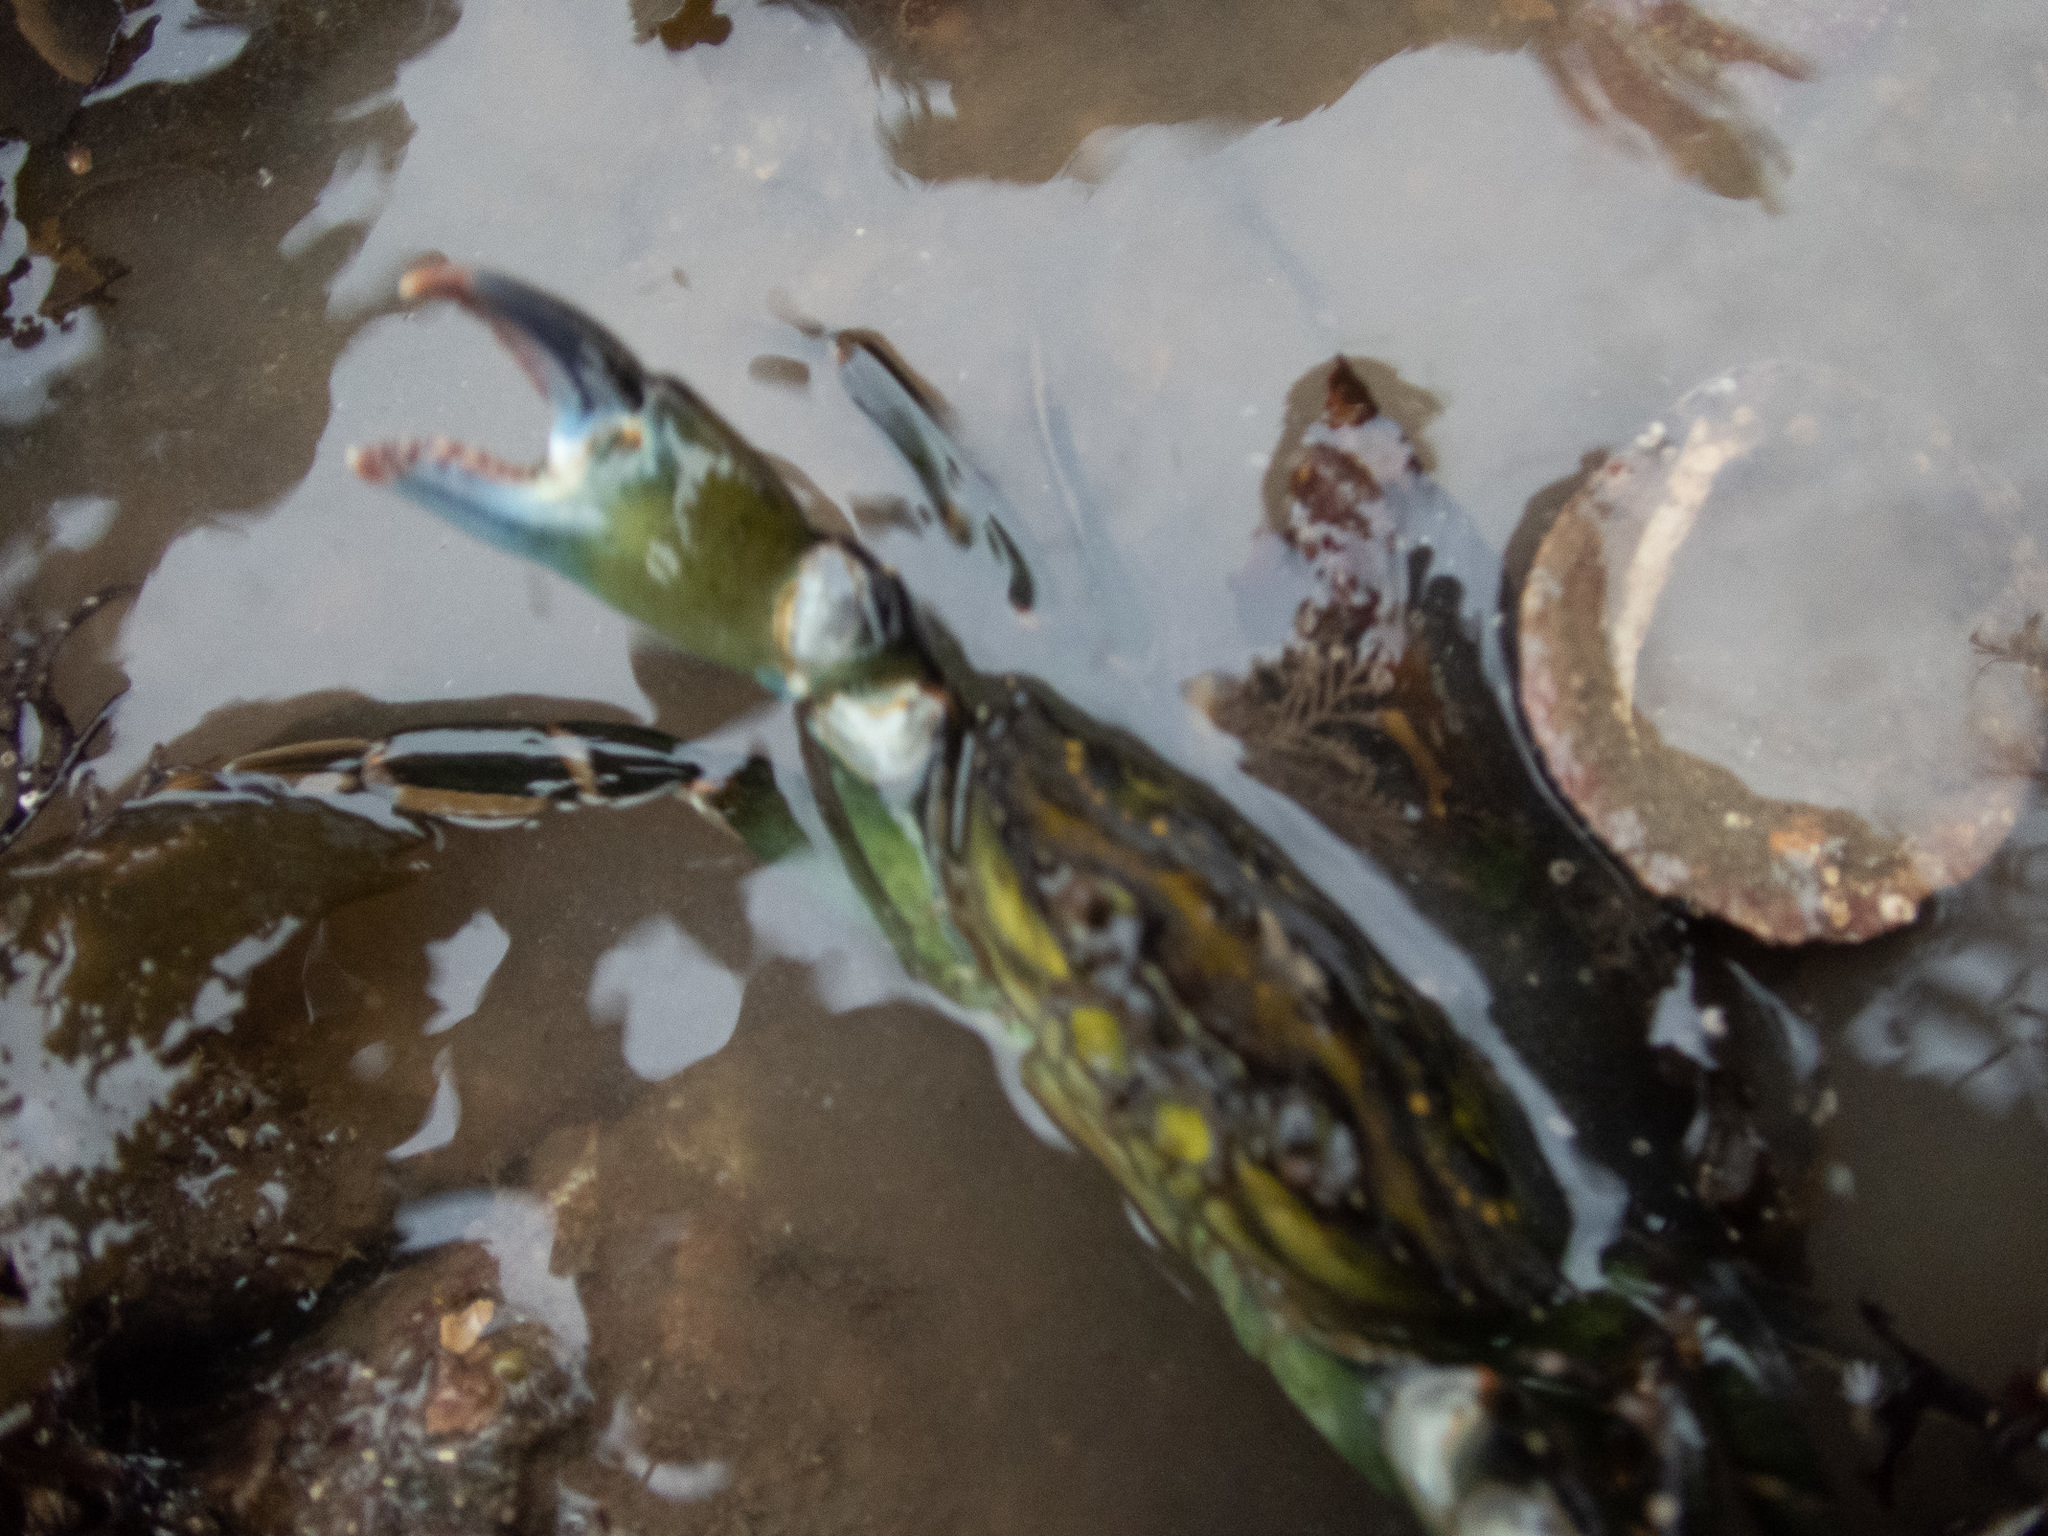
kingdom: Animalia
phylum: Arthropoda
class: Malacostraca
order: Decapoda
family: Carcinidae
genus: Carcinus
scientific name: Carcinus maenas
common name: European green crab
